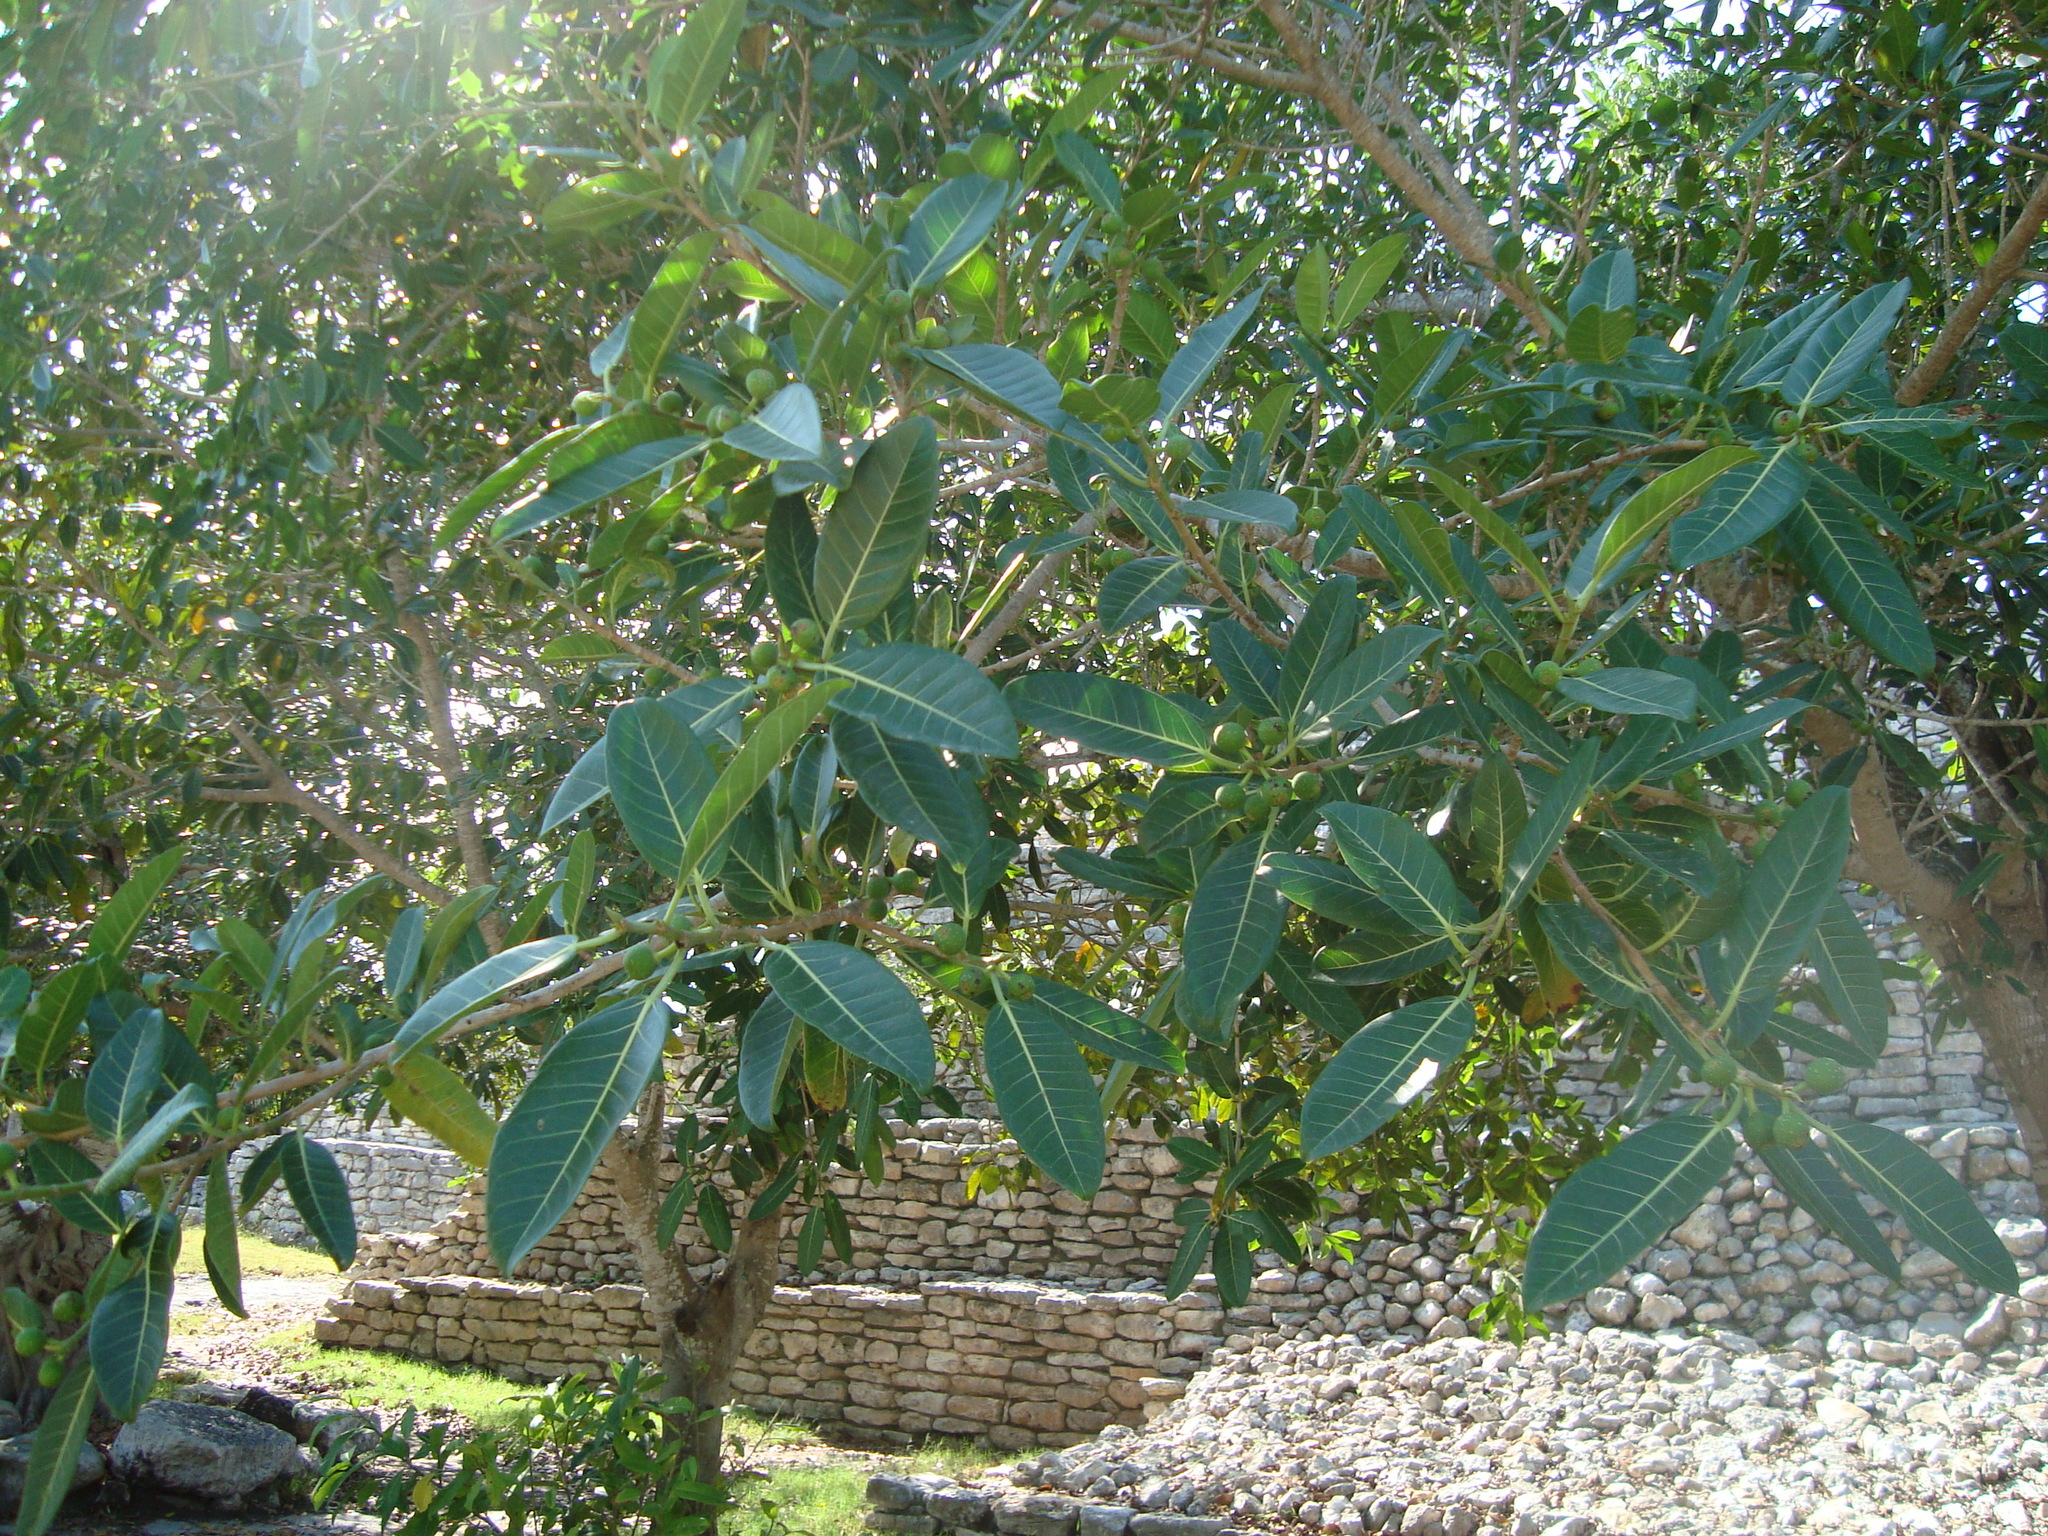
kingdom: Plantae
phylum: Tracheophyta
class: Magnoliopsida
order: Rosales
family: Moraceae
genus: Ficus
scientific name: Ficus crocata
